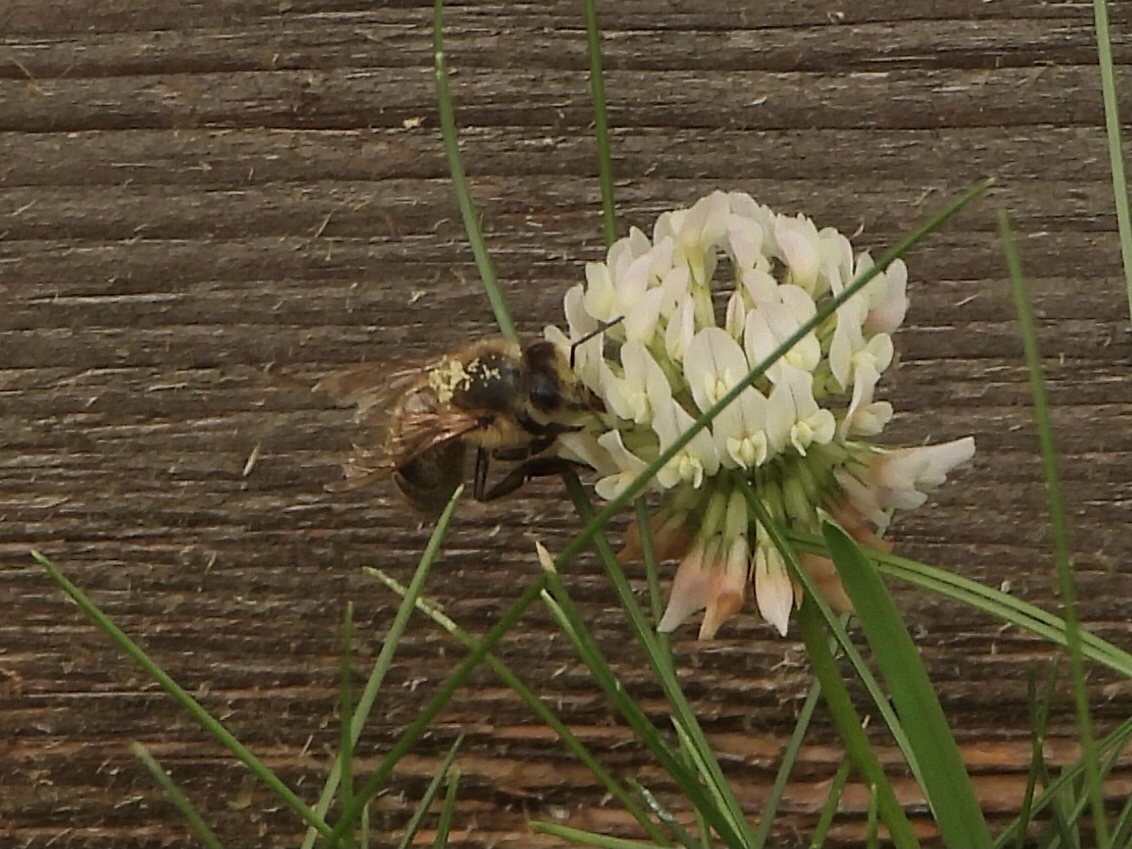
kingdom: Animalia
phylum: Arthropoda
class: Insecta
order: Hymenoptera
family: Apidae
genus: Apis
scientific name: Apis mellifera
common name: Honey bee
